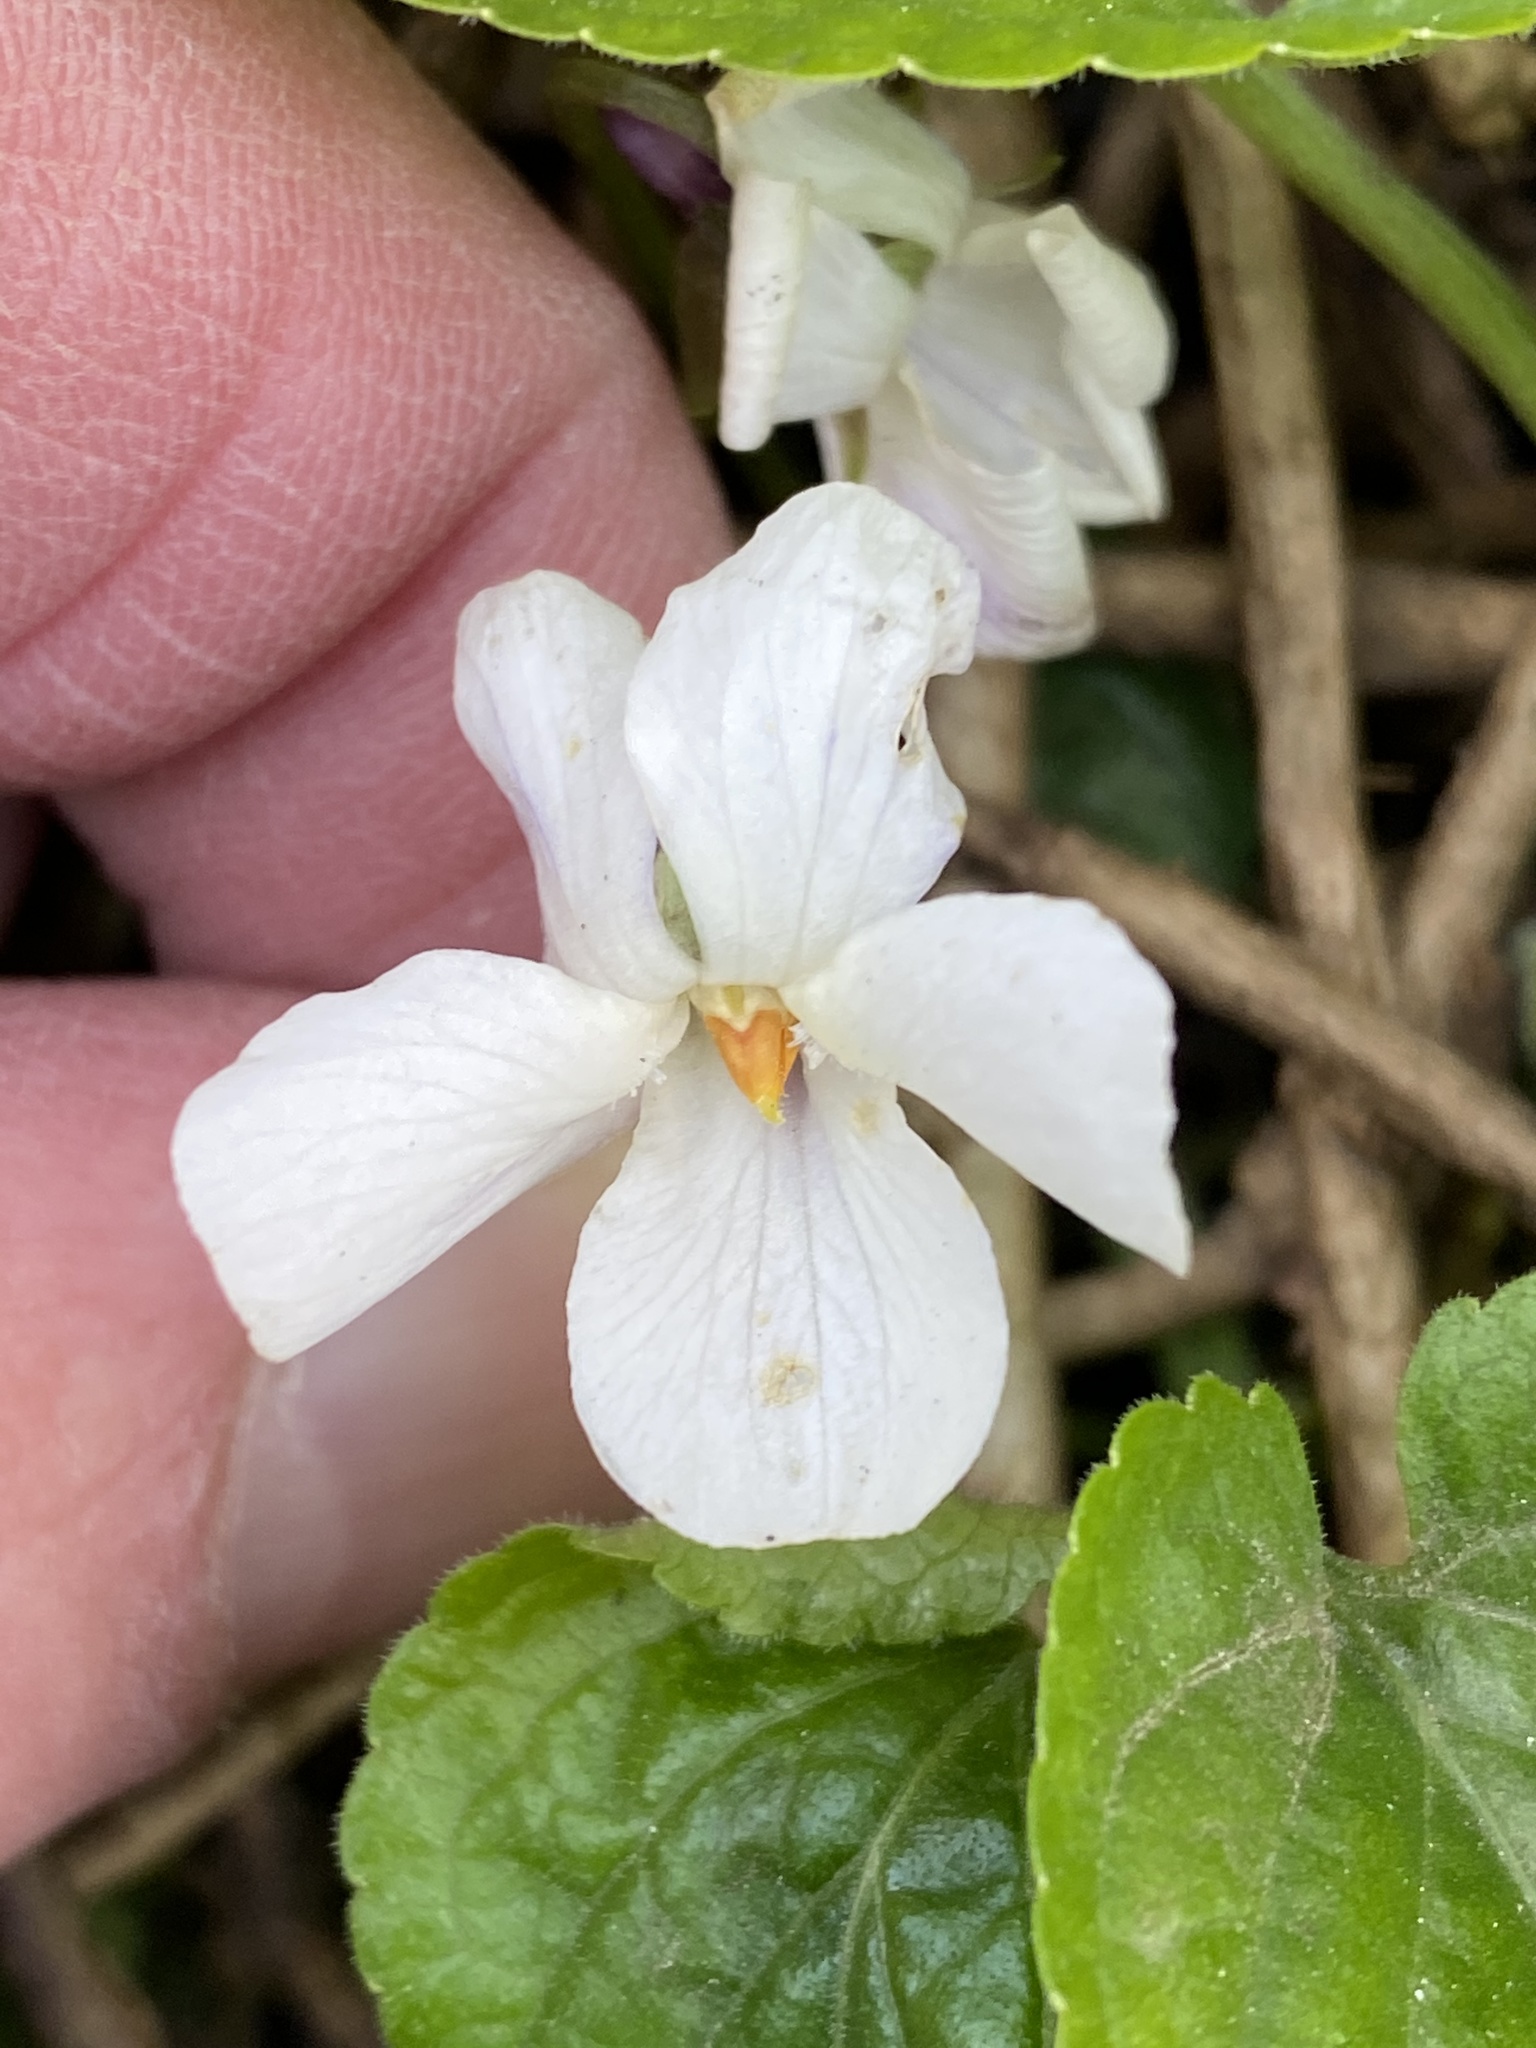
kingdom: Plantae
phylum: Tracheophyta
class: Magnoliopsida
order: Malpighiales
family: Violaceae
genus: Viola
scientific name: Viola odorata
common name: Sweet violet
